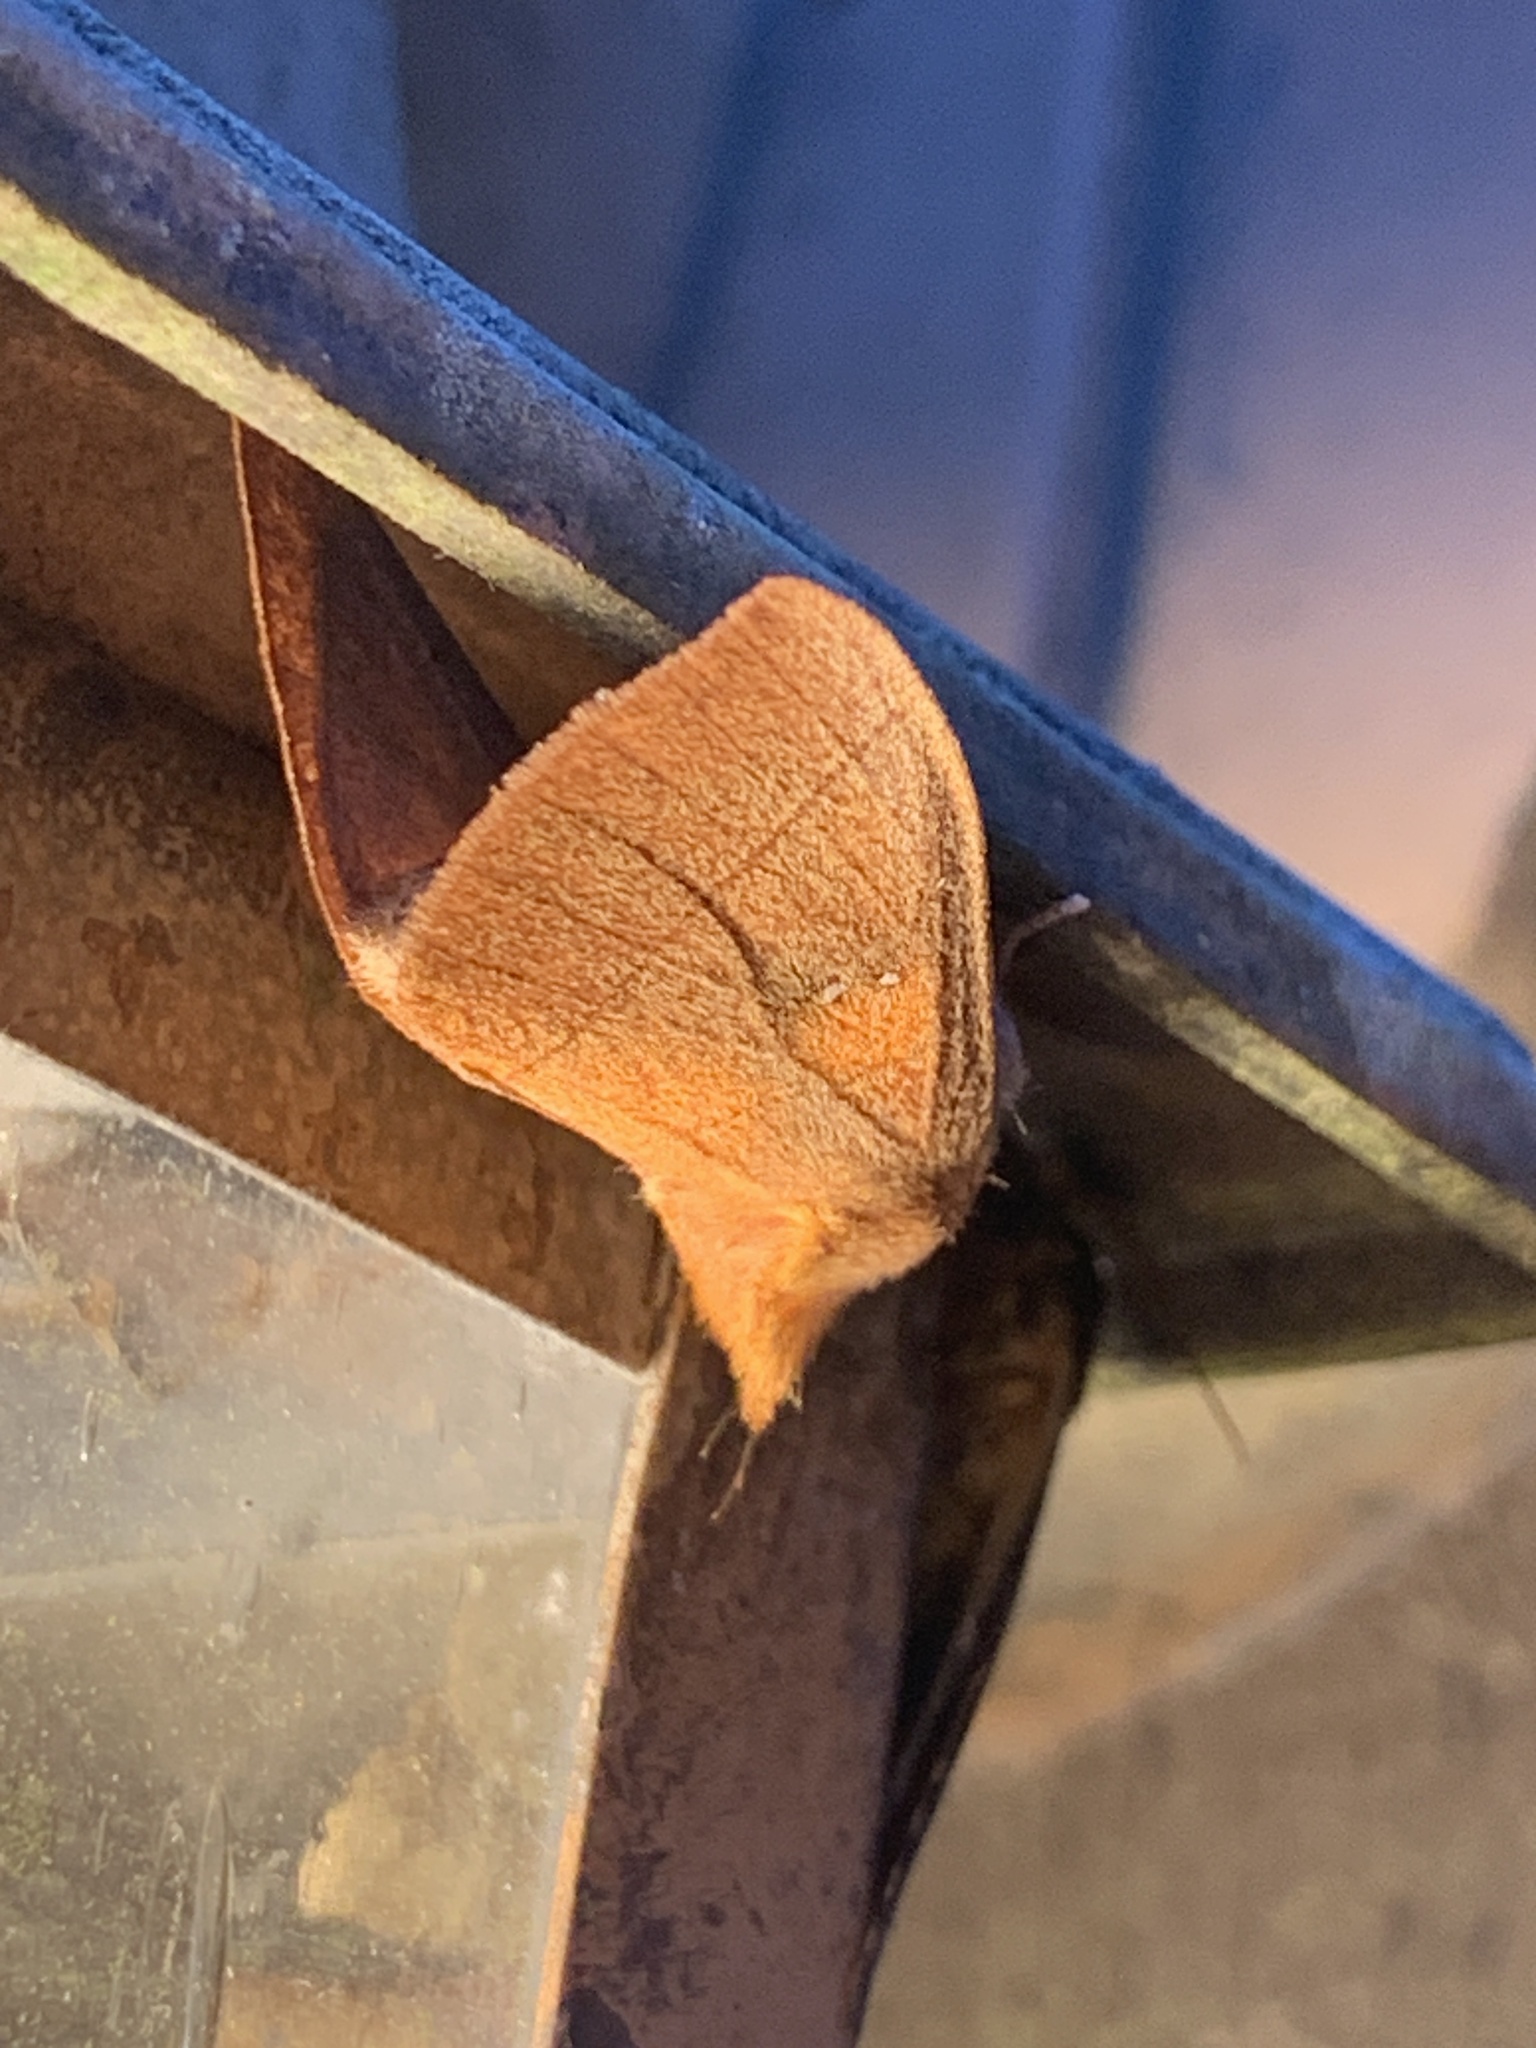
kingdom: Animalia
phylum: Arthropoda
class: Insecta
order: Lepidoptera
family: Notodontidae
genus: Nadata
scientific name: Nadata gibbosa
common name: White-dotted prominent
